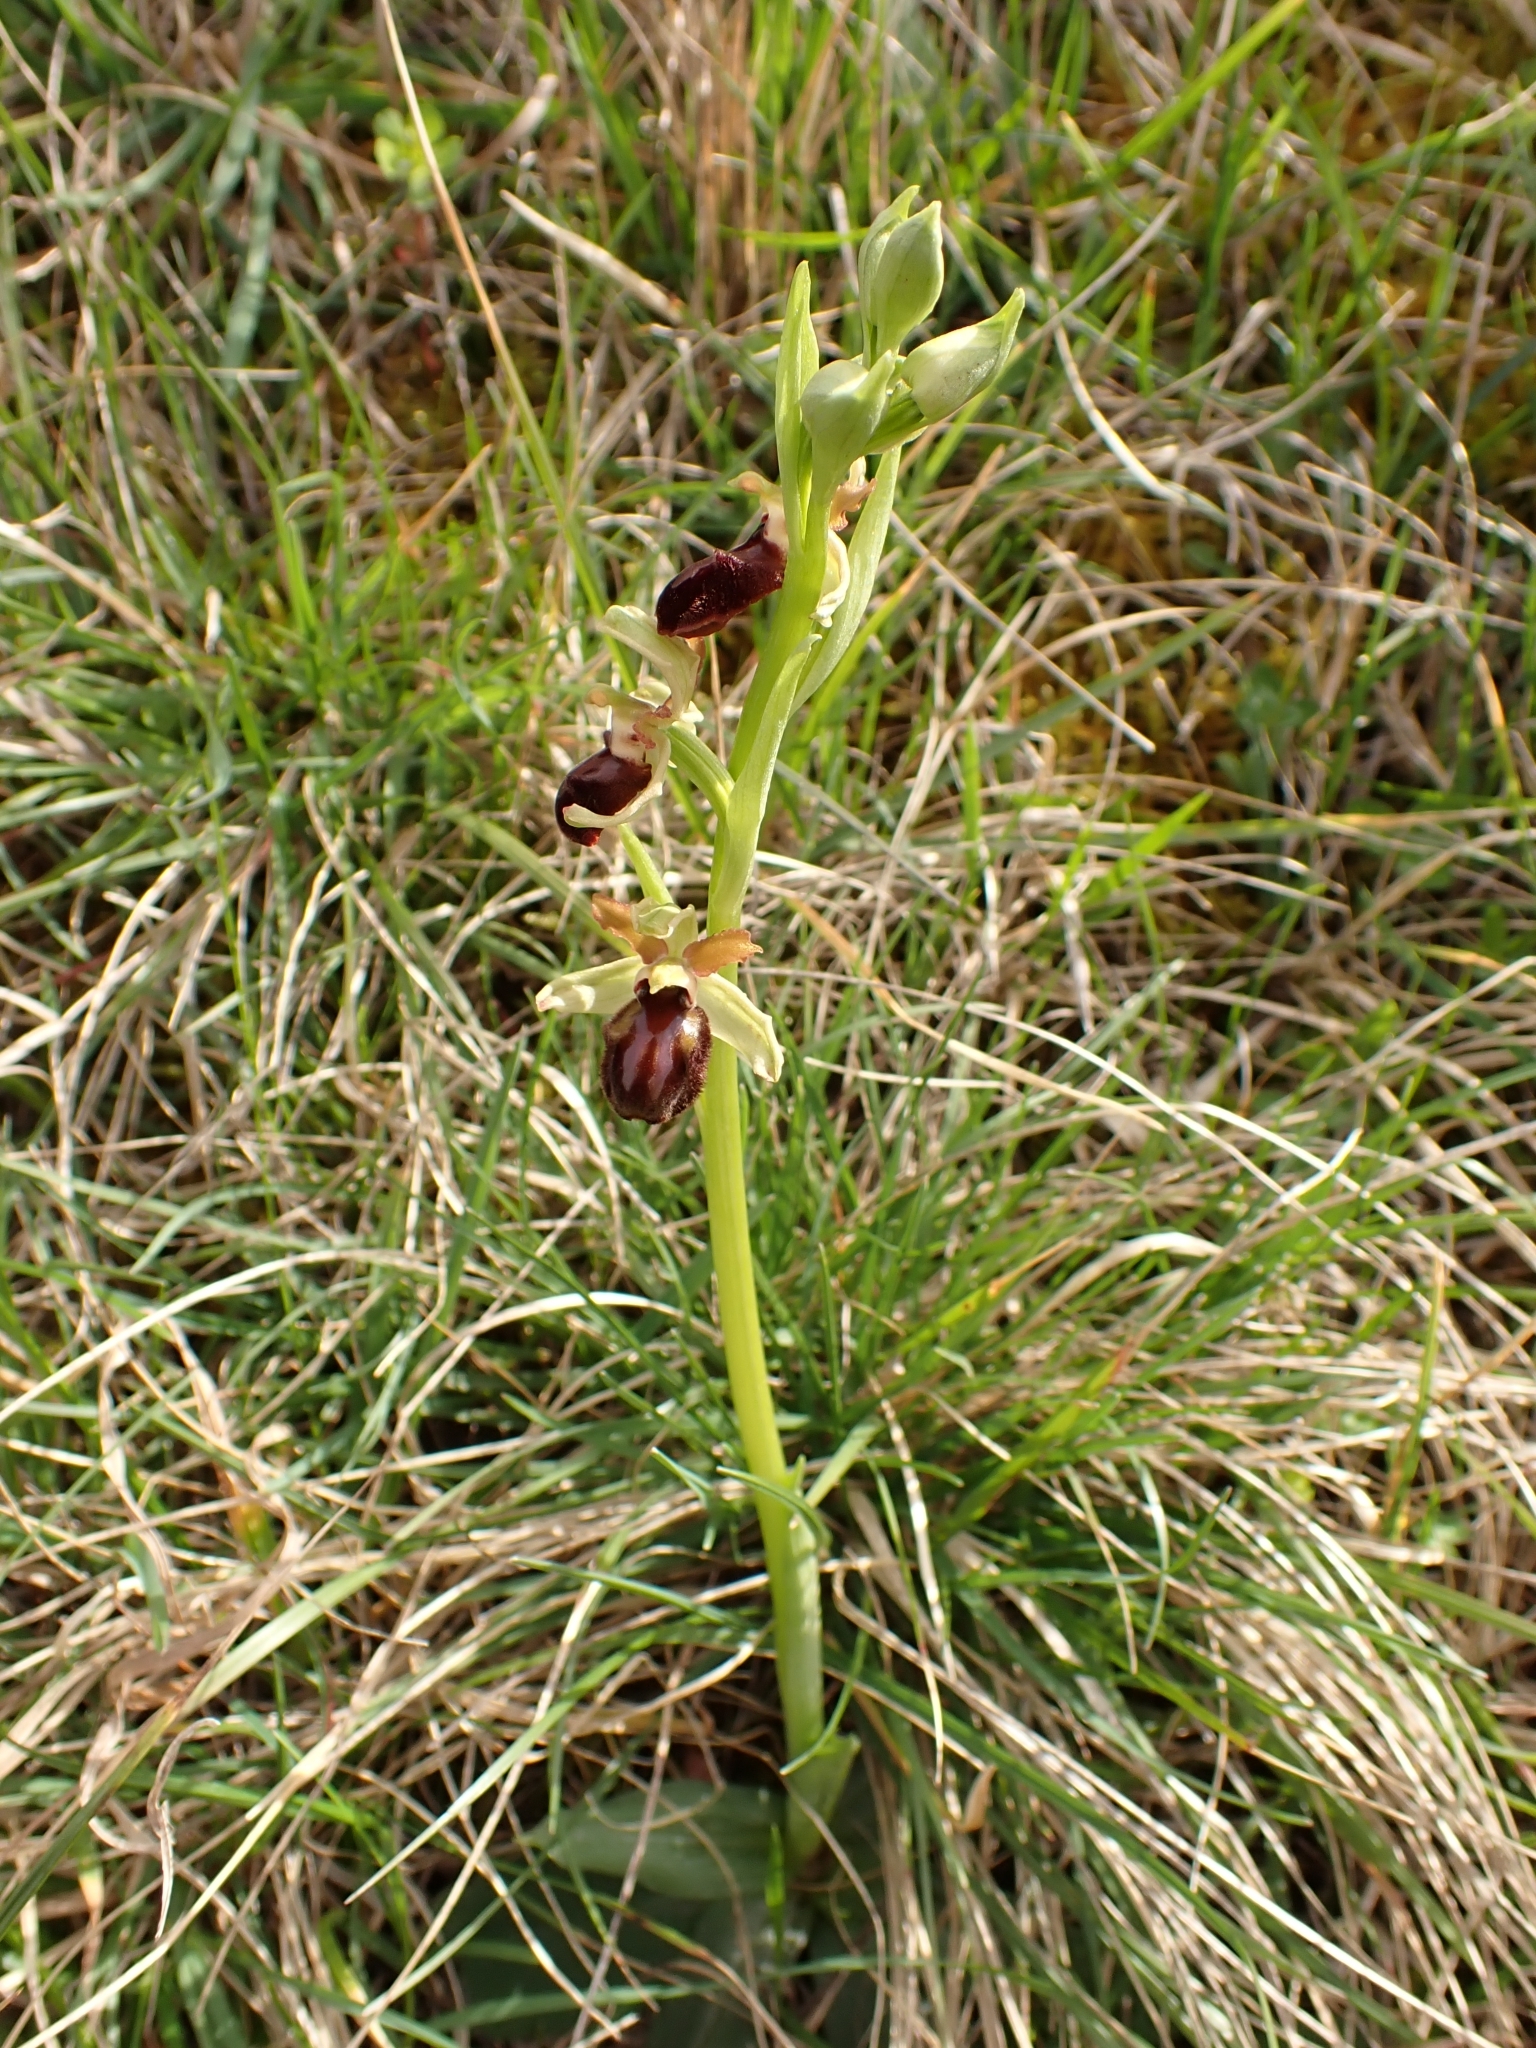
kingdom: Plantae
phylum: Tracheophyta
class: Liliopsida
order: Asparagales
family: Orchidaceae
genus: Ophrys
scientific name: Ophrys sphegodes
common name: Early spider-orchid
